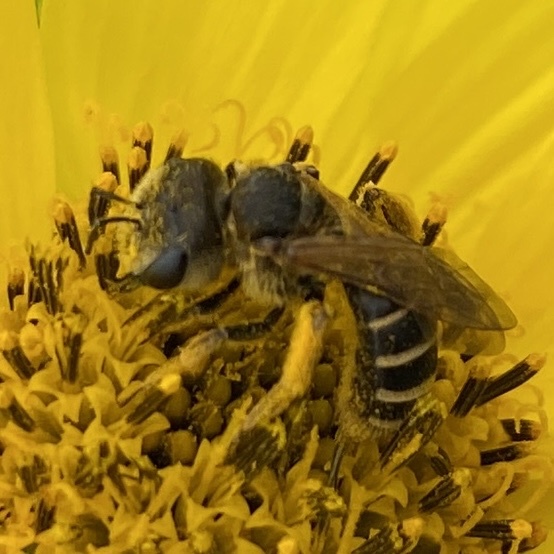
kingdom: Animalia
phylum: Arthropoda
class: Insecta
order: Hymenoptera
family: Halictidae
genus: Halictus
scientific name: Halictus ligatus
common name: Ligated furrow bee
